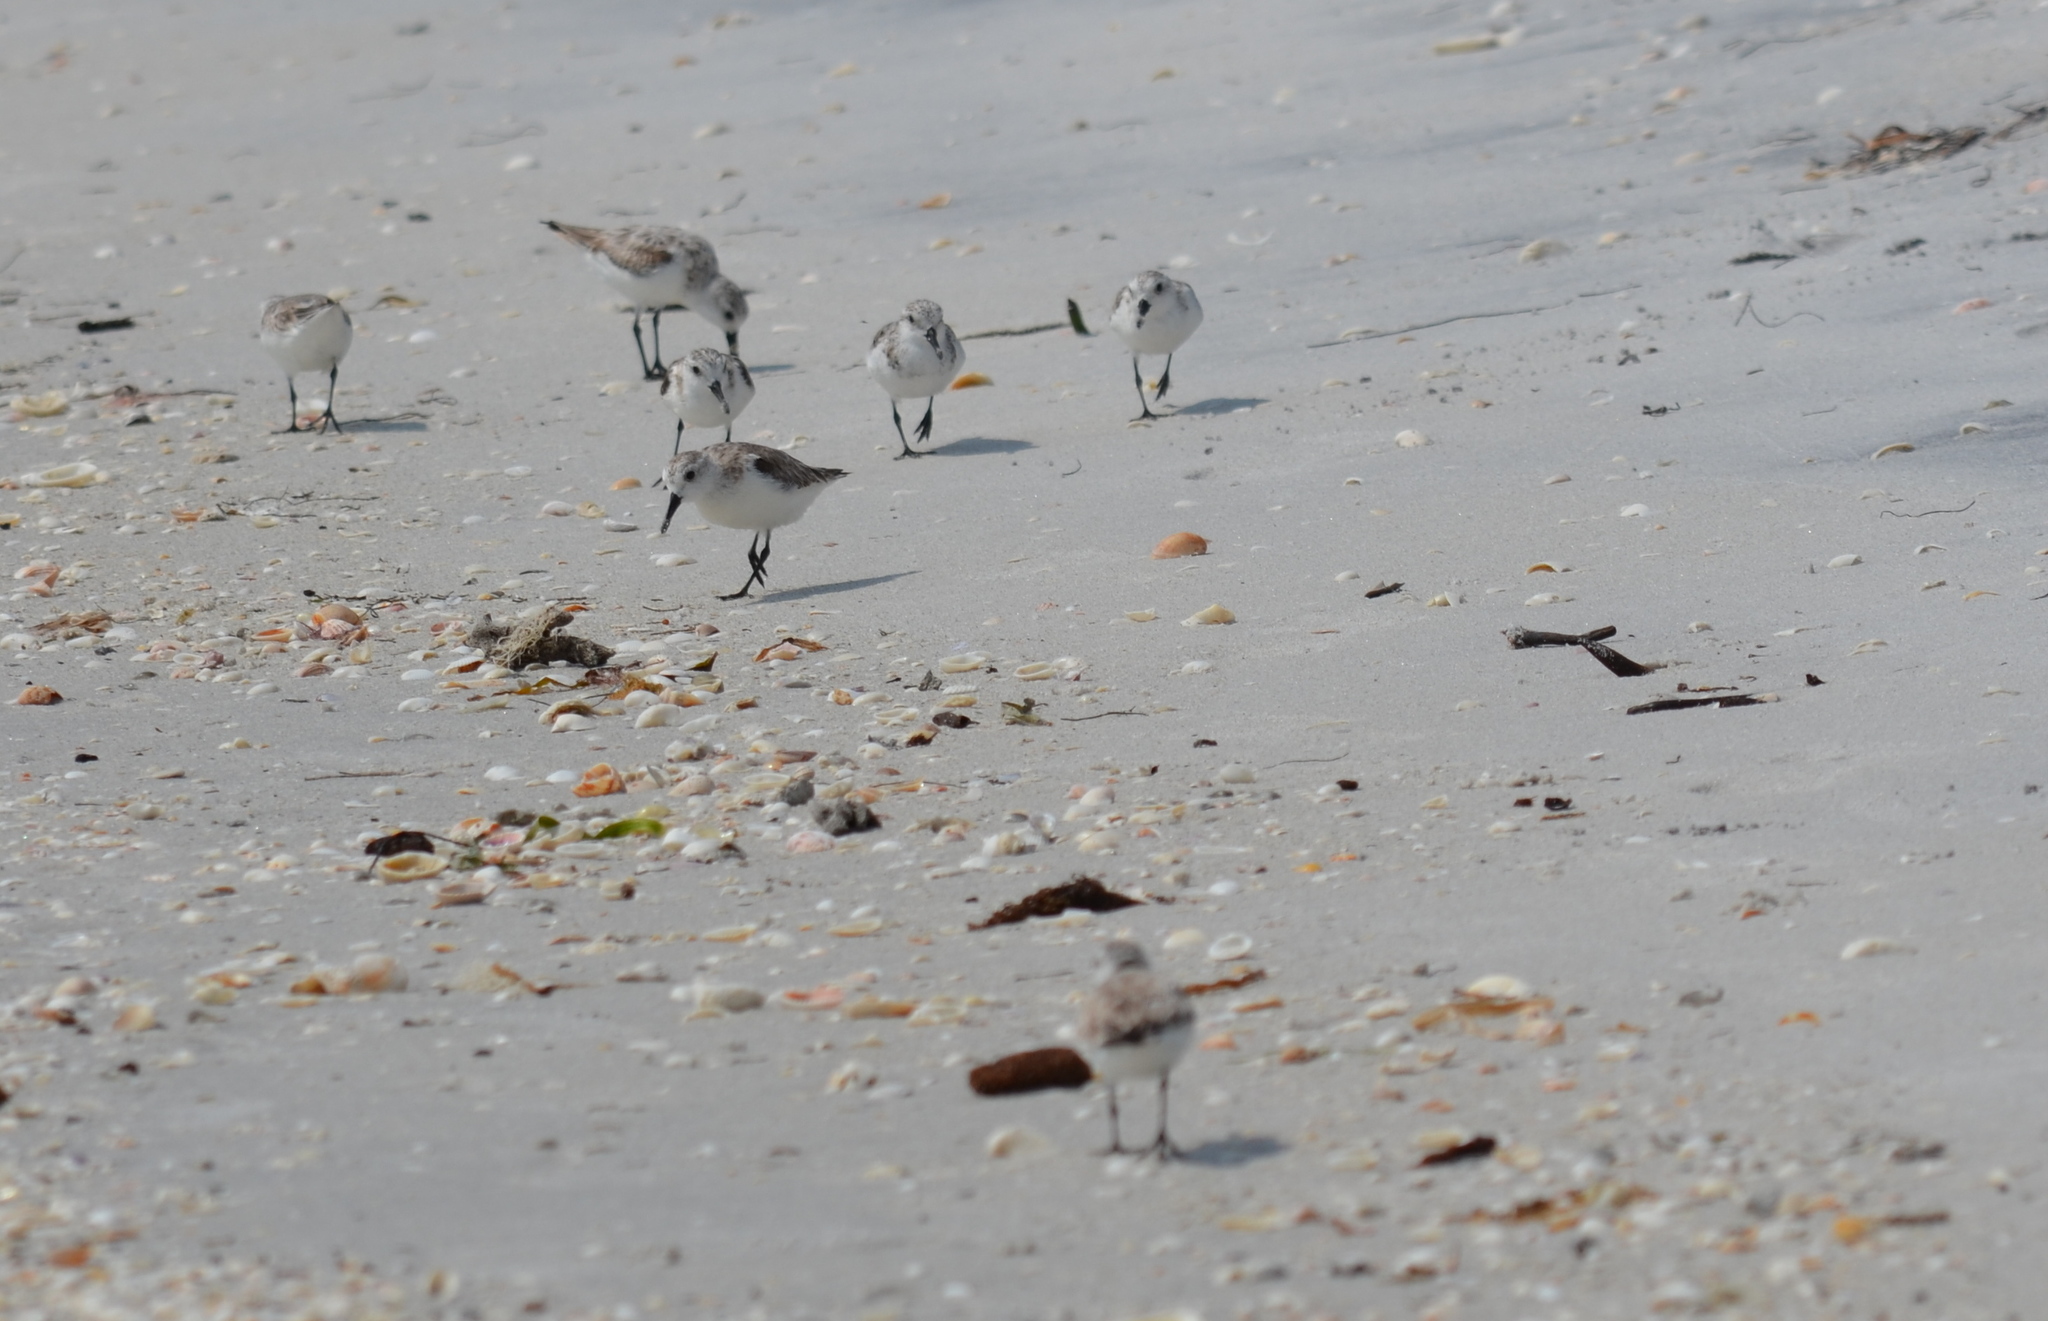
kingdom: Animalia
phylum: Chordata
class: Aves
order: Charadriiformes
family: Scolopacidae
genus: Calidris
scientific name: Calidris alba
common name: Sanderling
